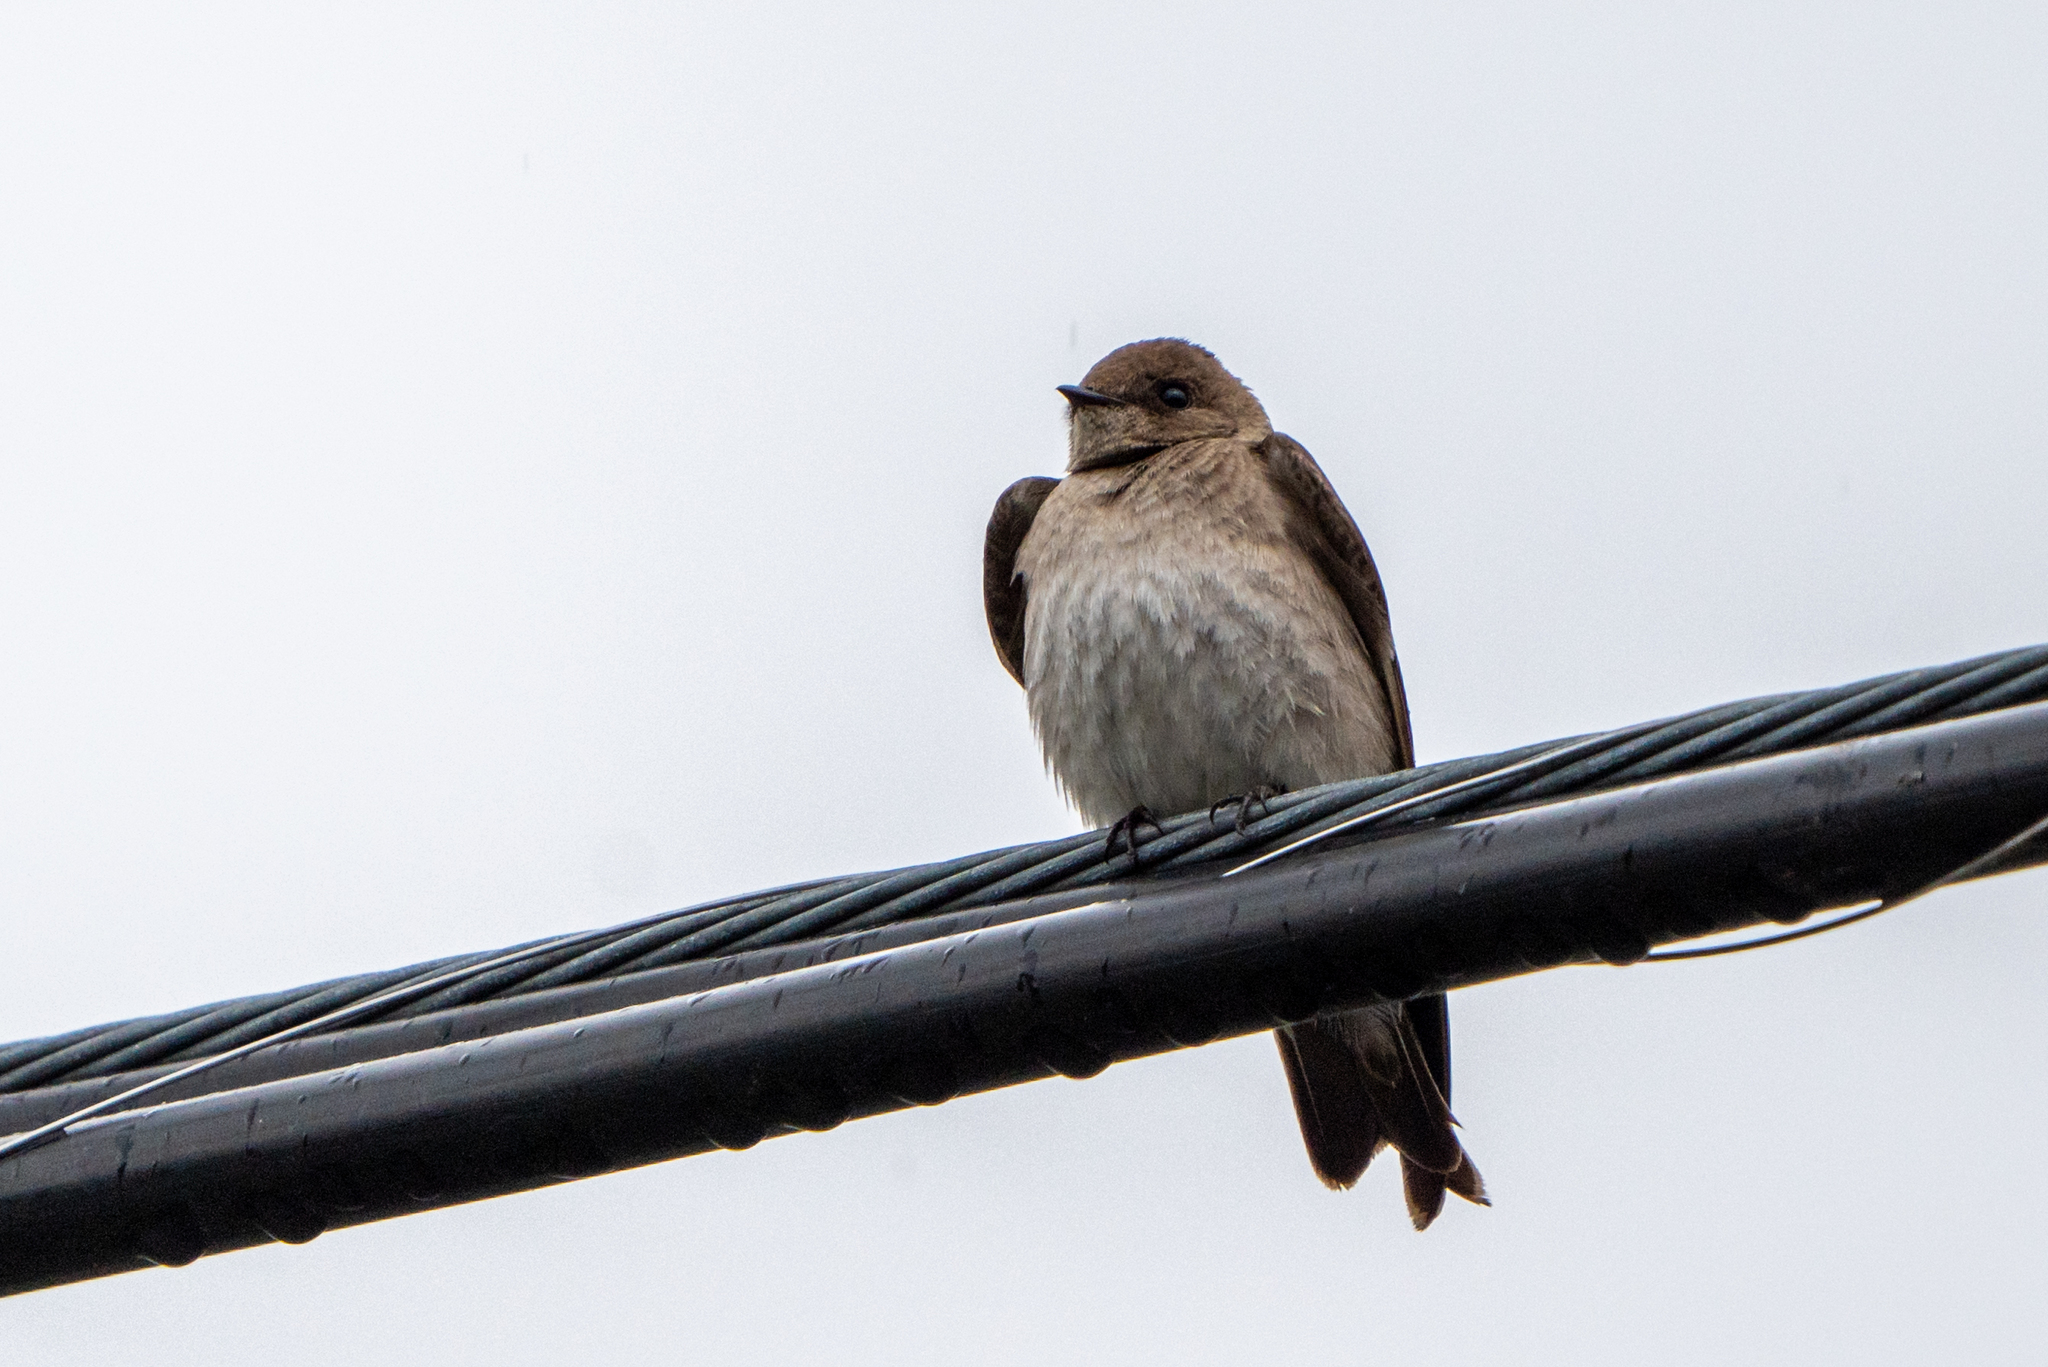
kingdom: Animalia
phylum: Chordata
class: Aves
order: Passeriformes
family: Hirundinidae
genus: Stelgidopteryx
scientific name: Stelgidopteryx serripennis
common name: Northern rough-winged swallow
